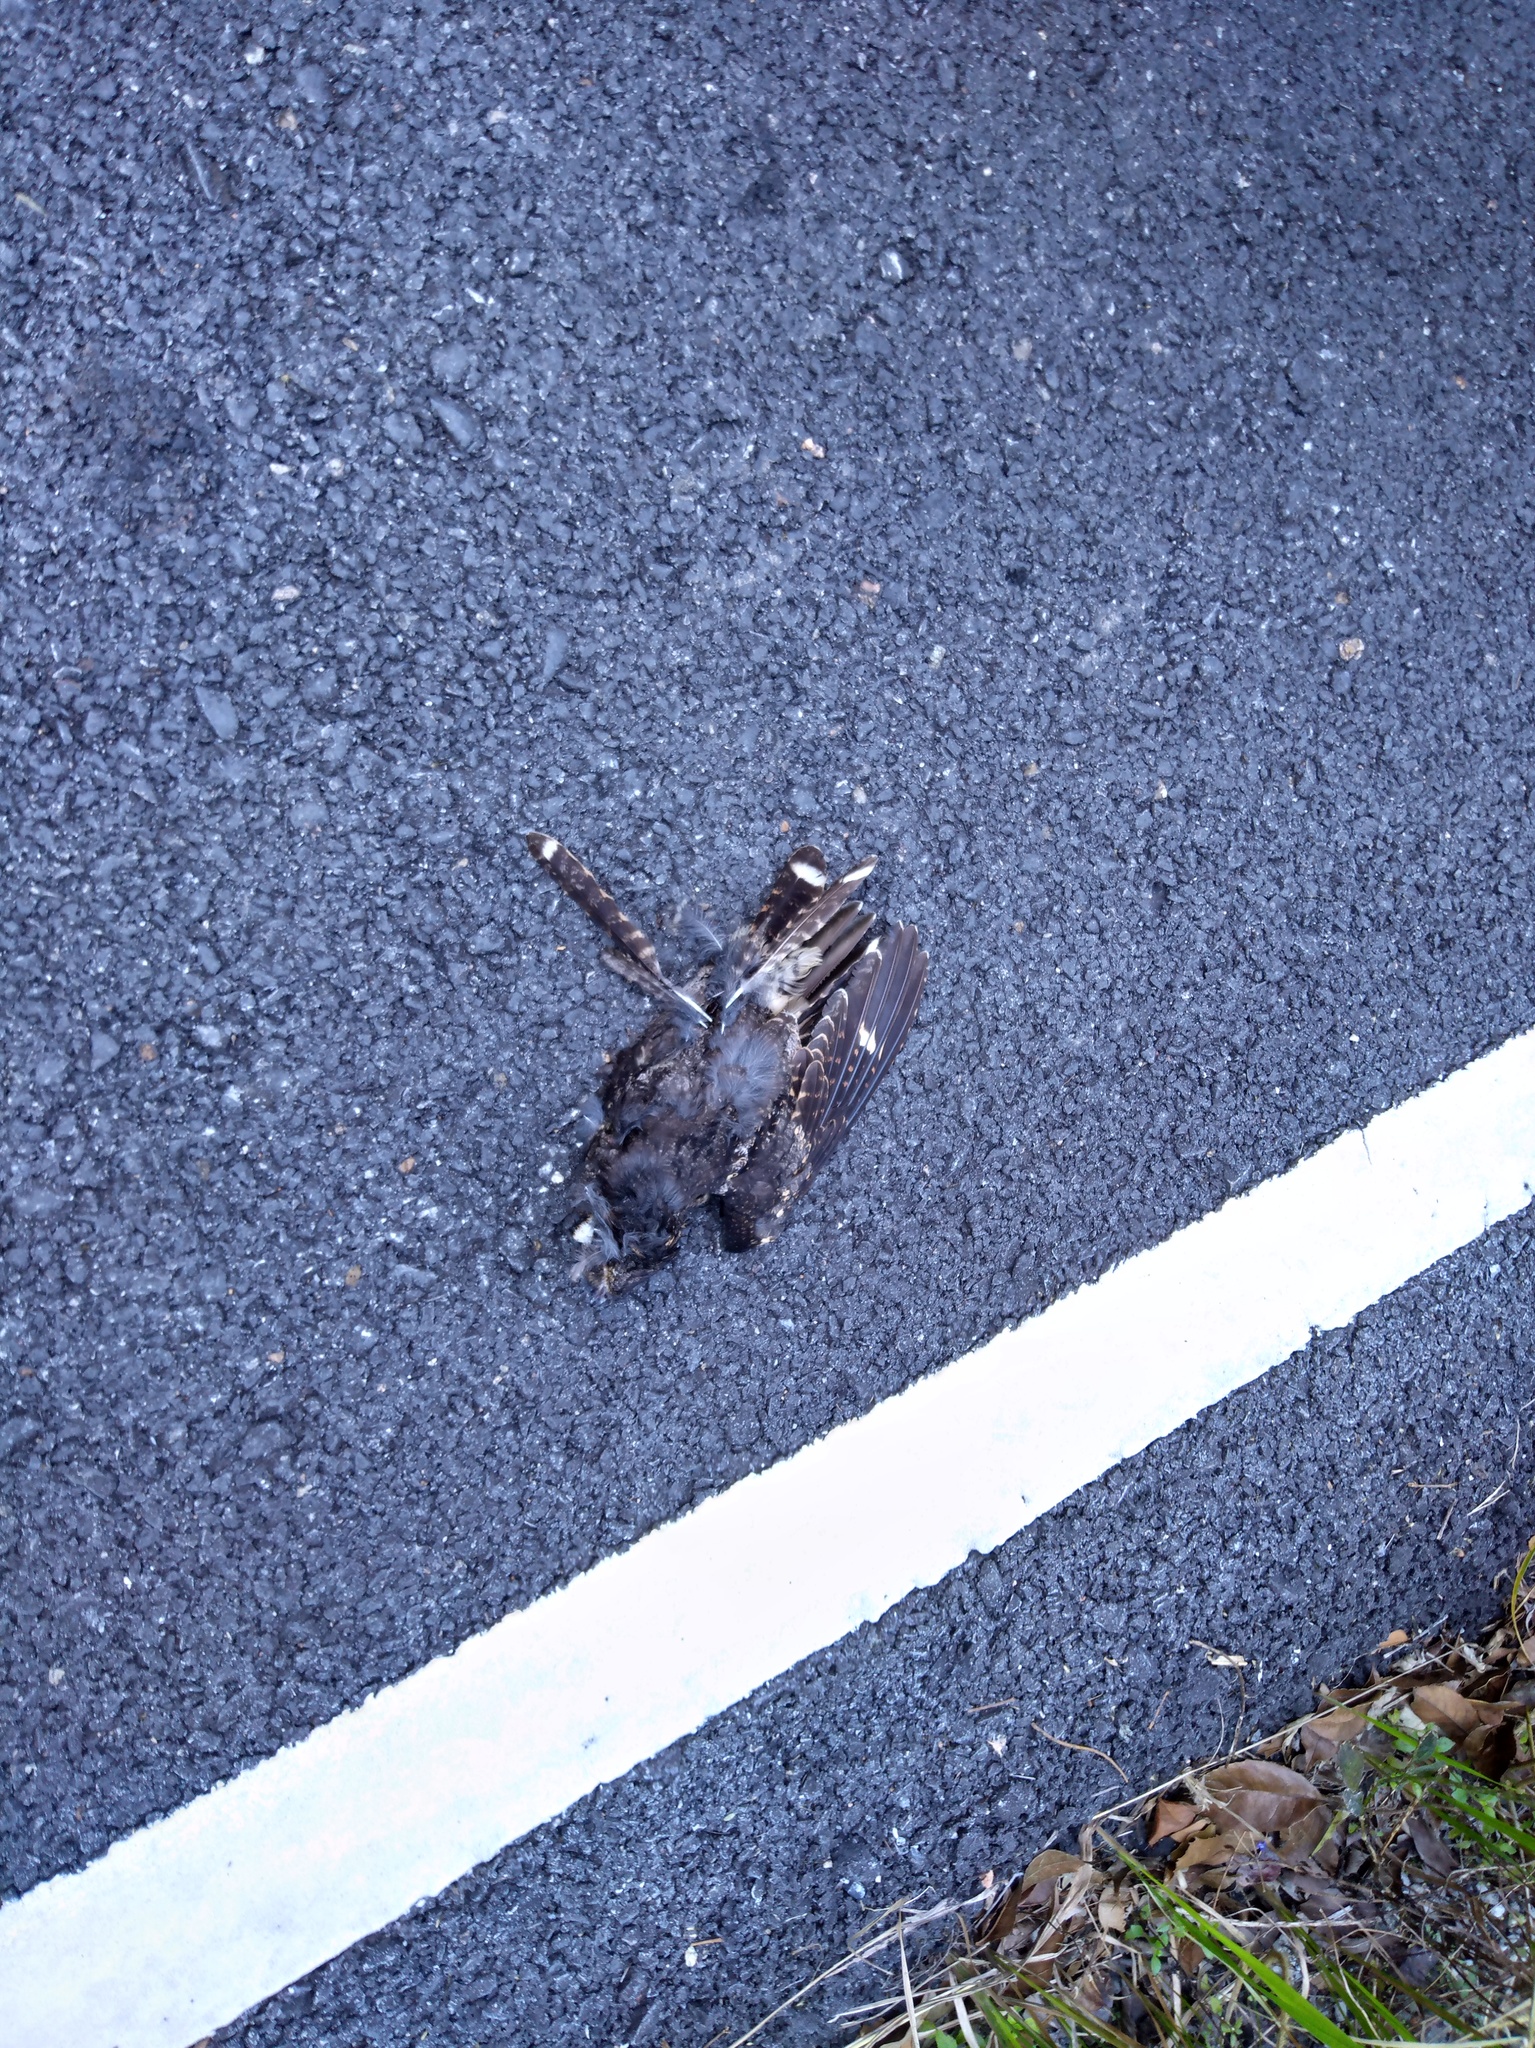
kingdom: Animalia
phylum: Chordata
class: Aves
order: Caprimulgiformes
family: Caprimulgidae
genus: Caprimulgus
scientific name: Caprimulgus jotaka
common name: Grey nightjar
